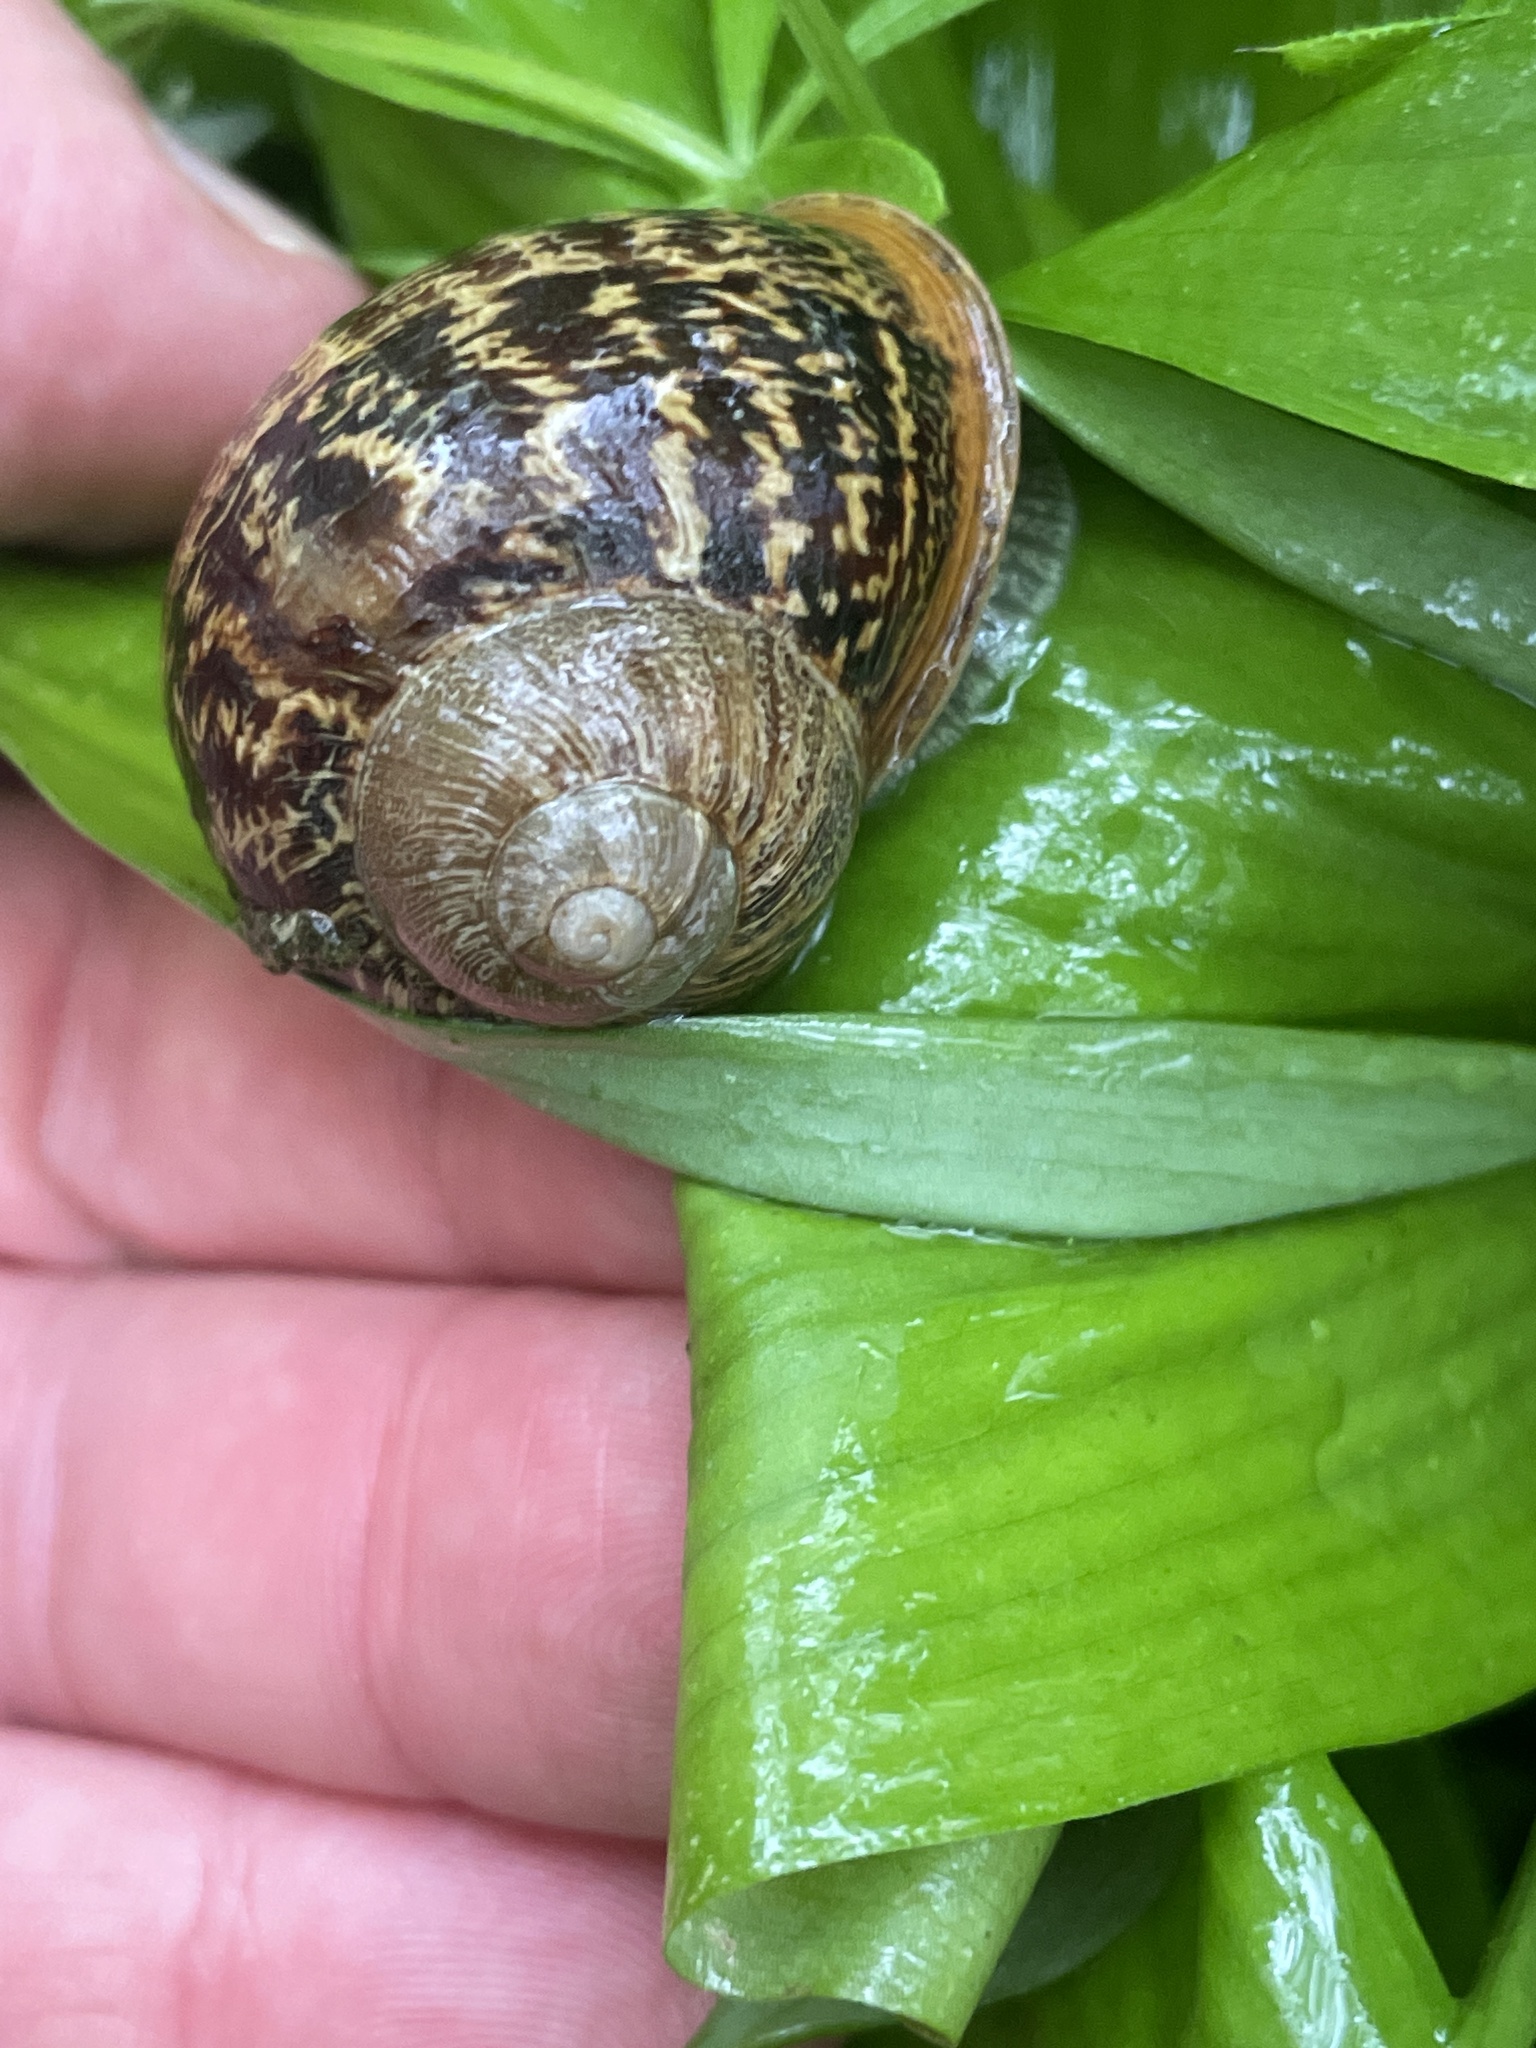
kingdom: Animalia
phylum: Mollusca
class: Gastropoda
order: Stylommatophora
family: Helicidae
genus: Cornu
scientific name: Cornu aspersum
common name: Brown garden snail
